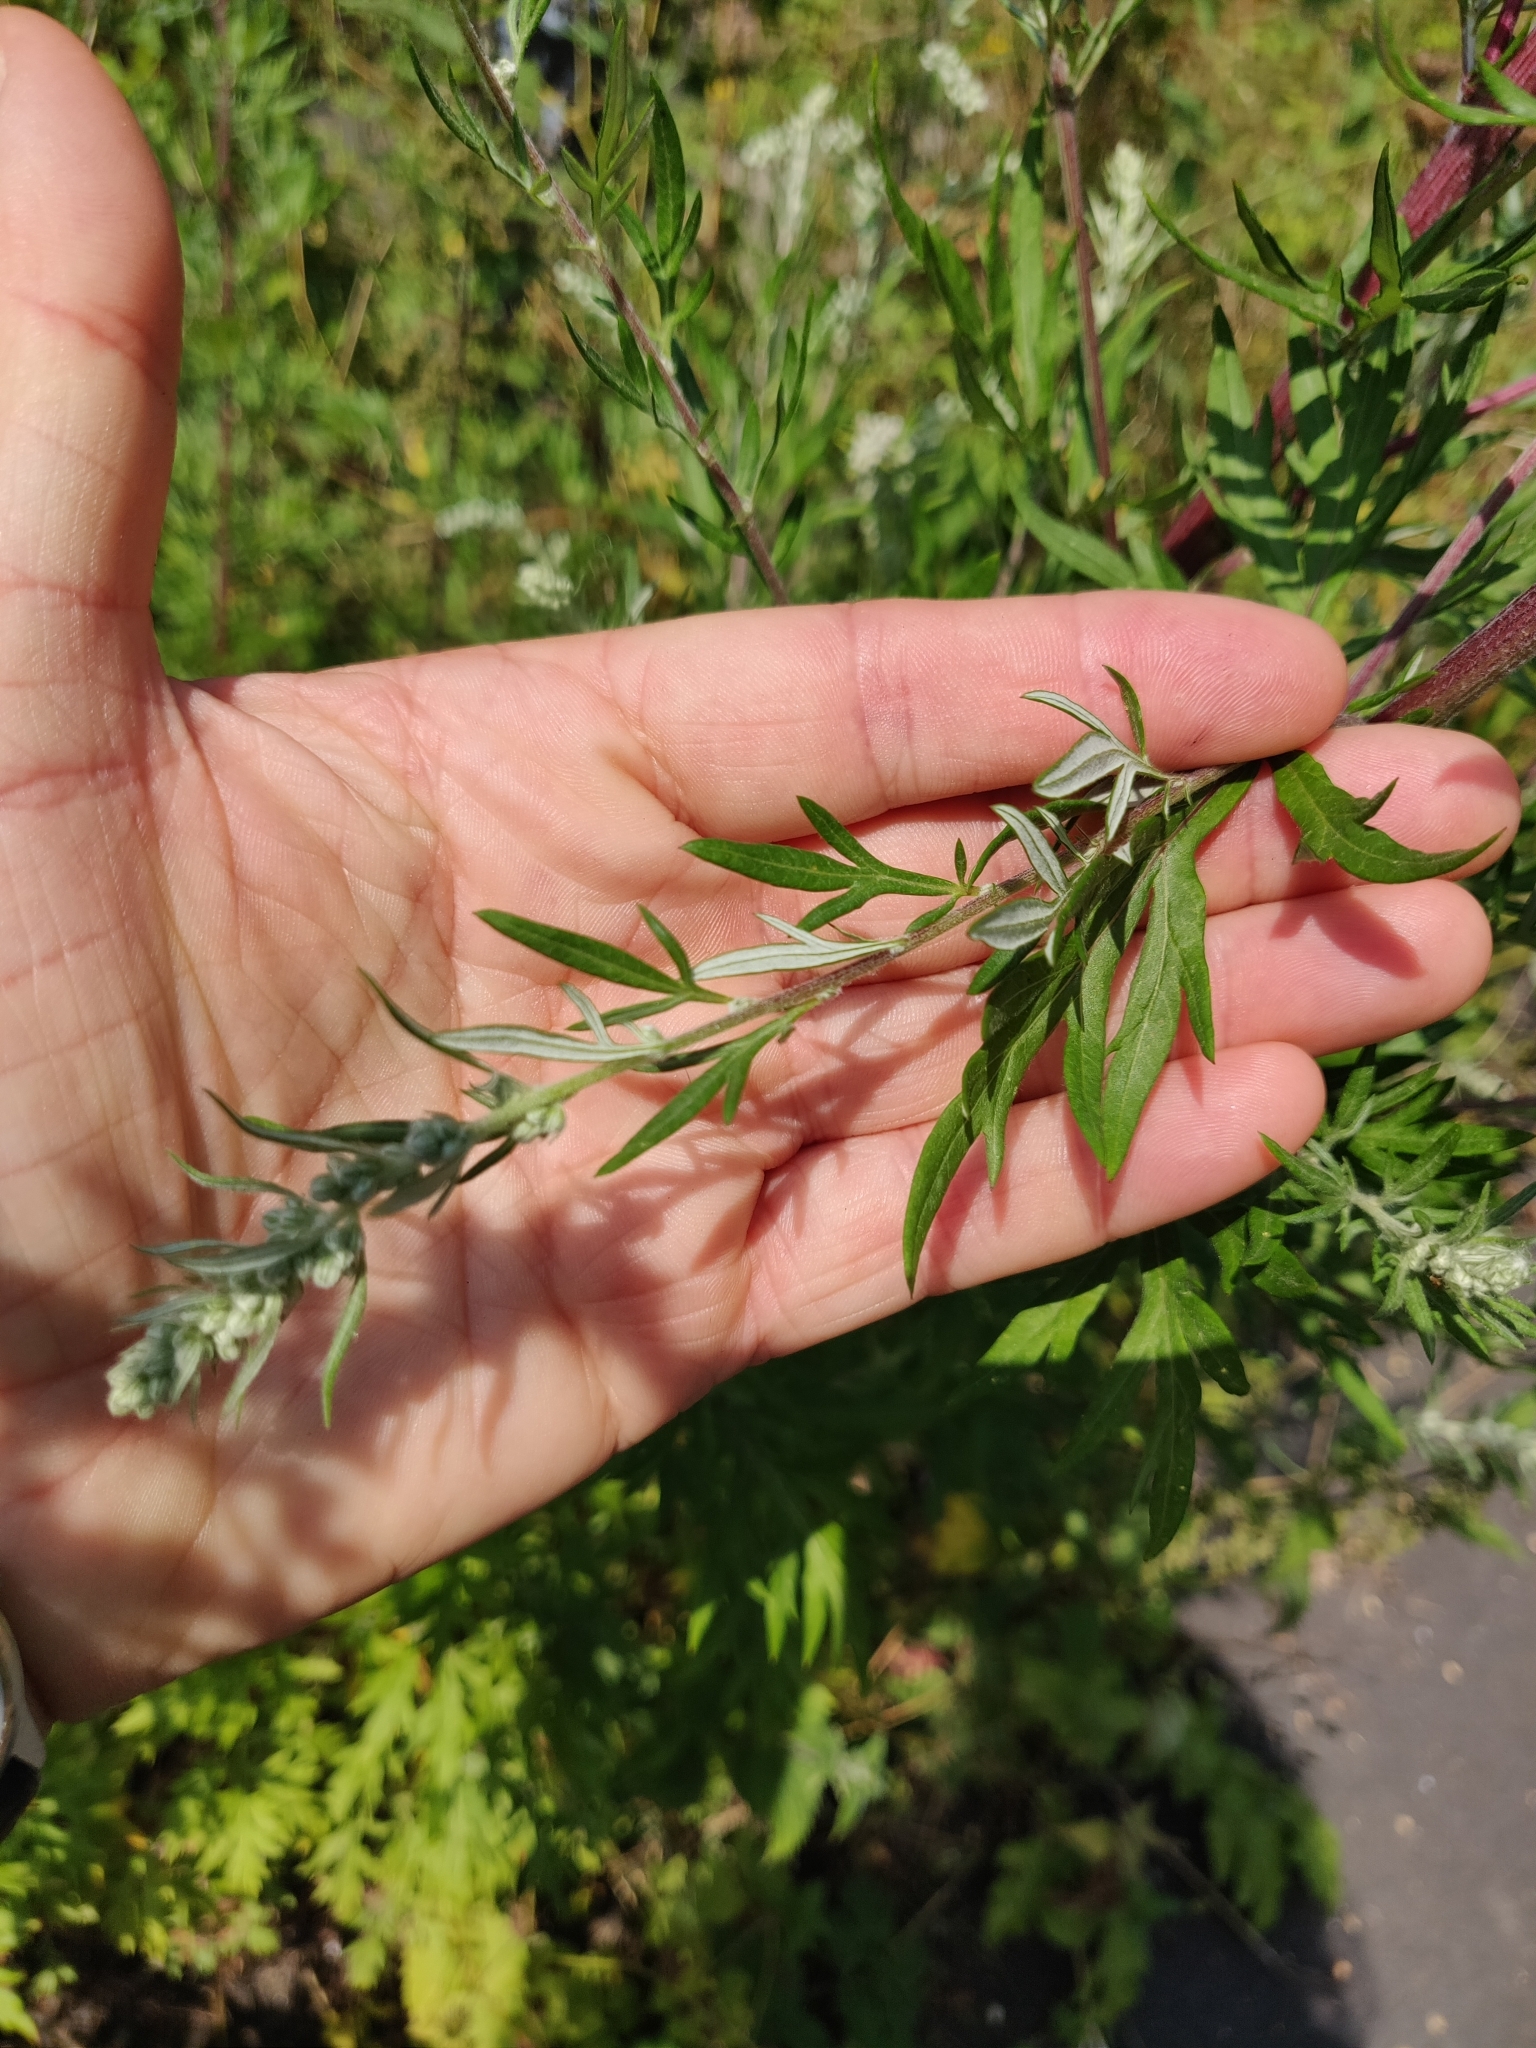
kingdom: Plantae
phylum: Tracheophyta
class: Magnoliopsida
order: Asterales
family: Asteraceae
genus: Artemisia
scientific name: Artemisia vulgaris
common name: Mugwort
